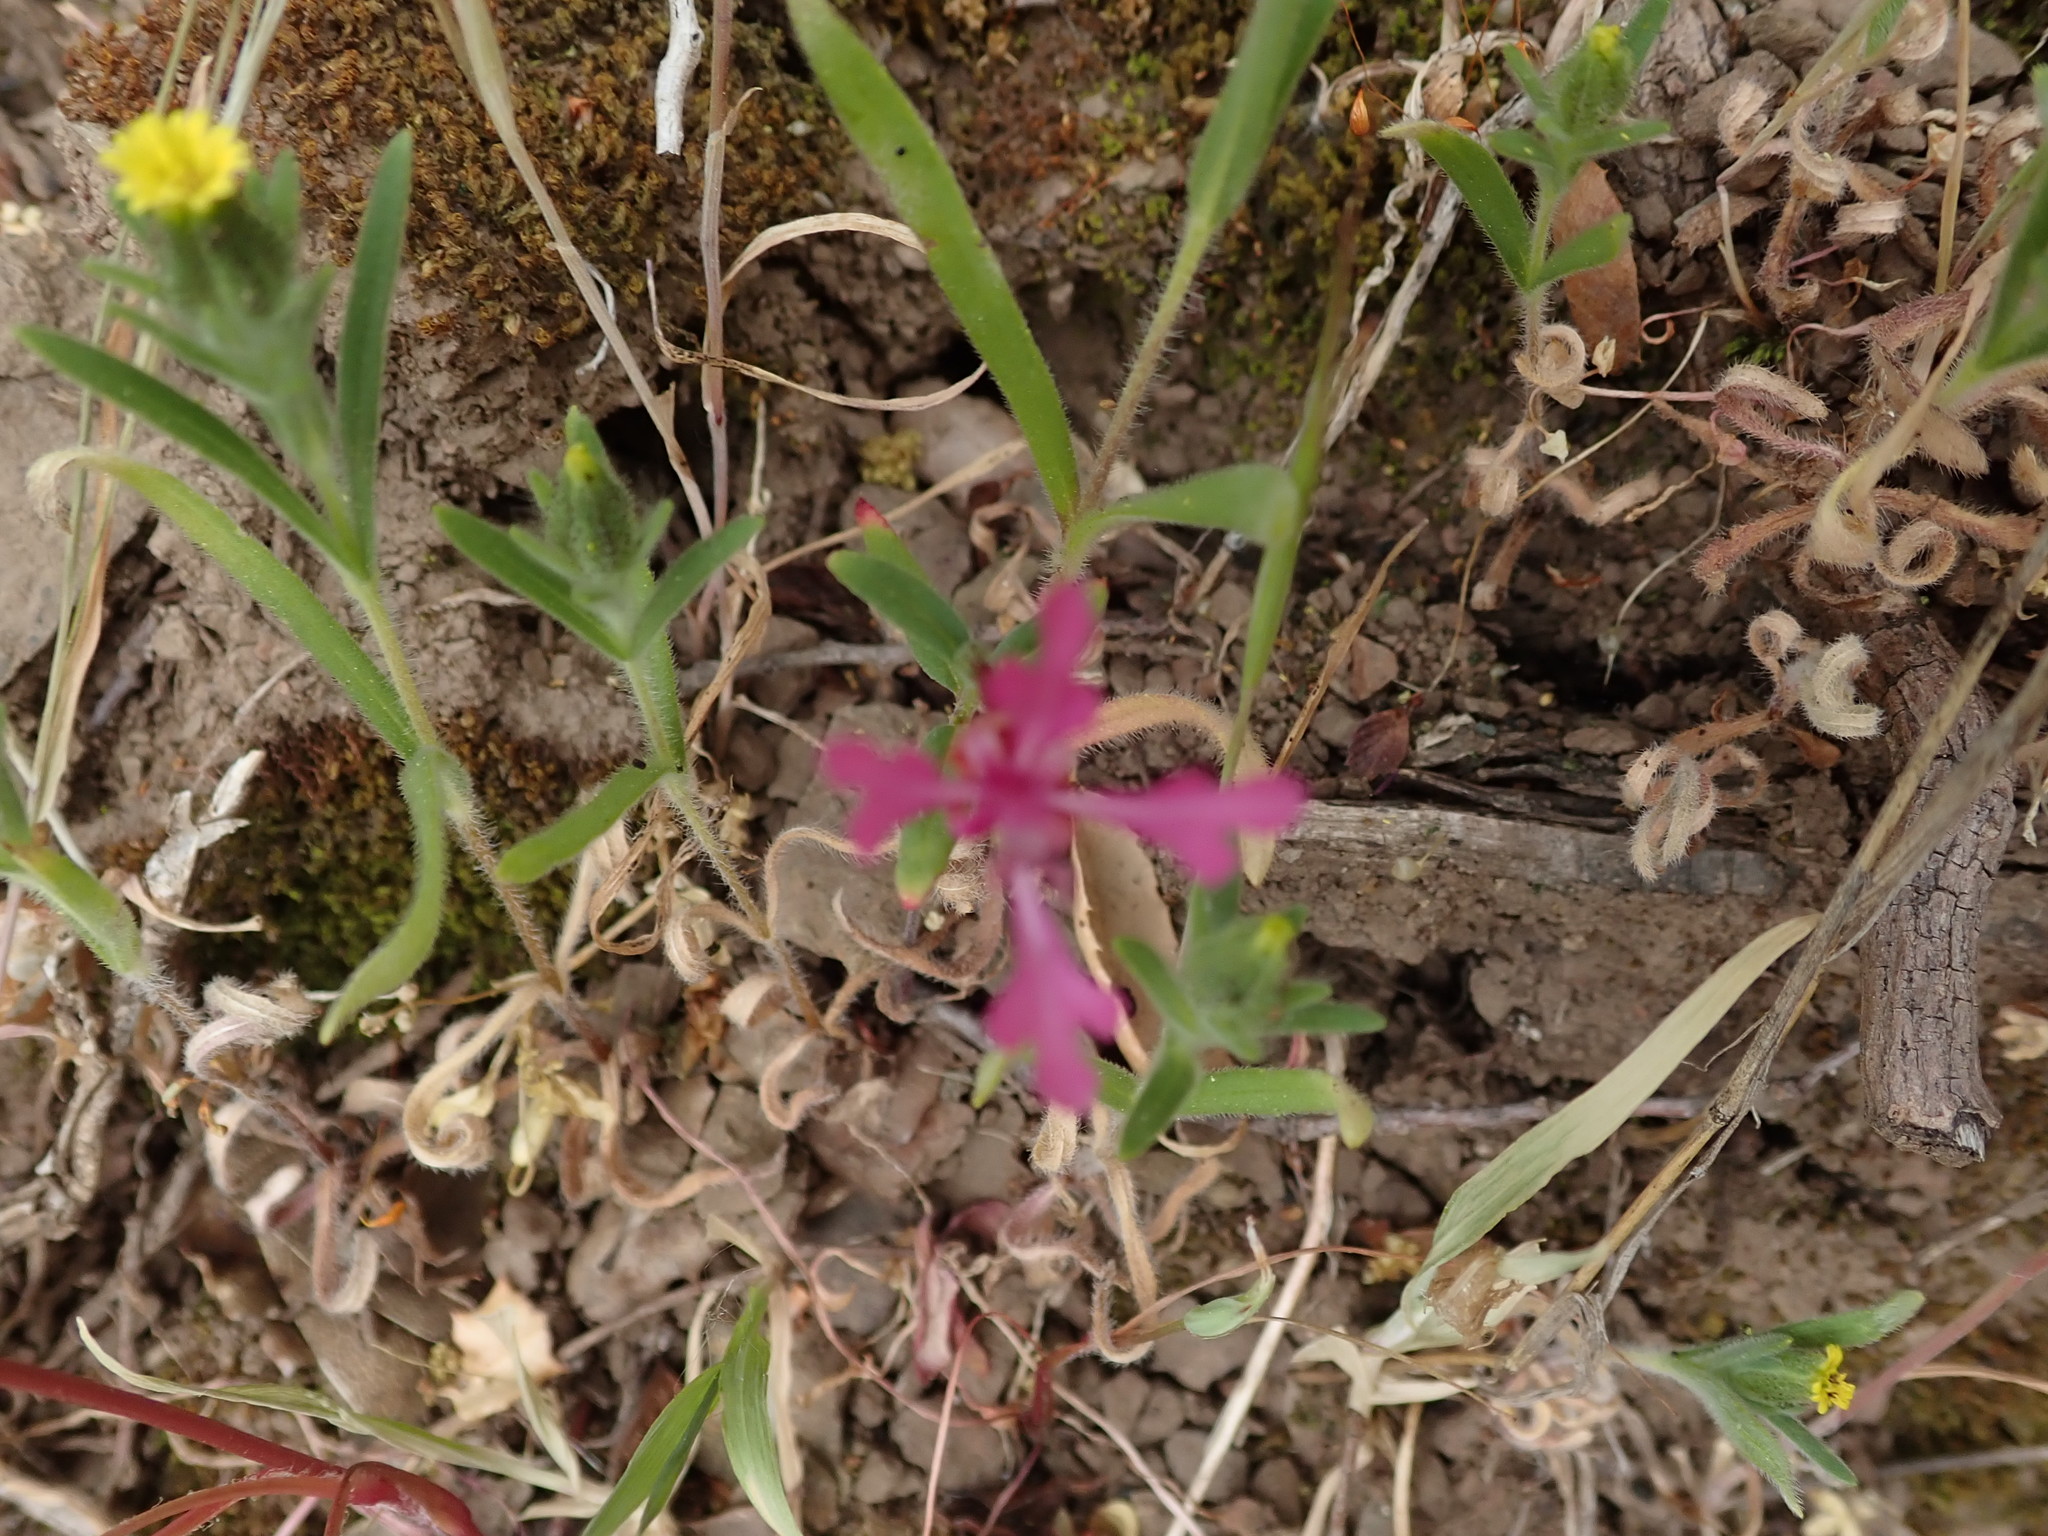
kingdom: Plantae
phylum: Tracheophyta
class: Magnoliopsida
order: Myrtales
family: Onagraceae
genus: Clarkia
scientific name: Clarkia concinna
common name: Red-ribbons
